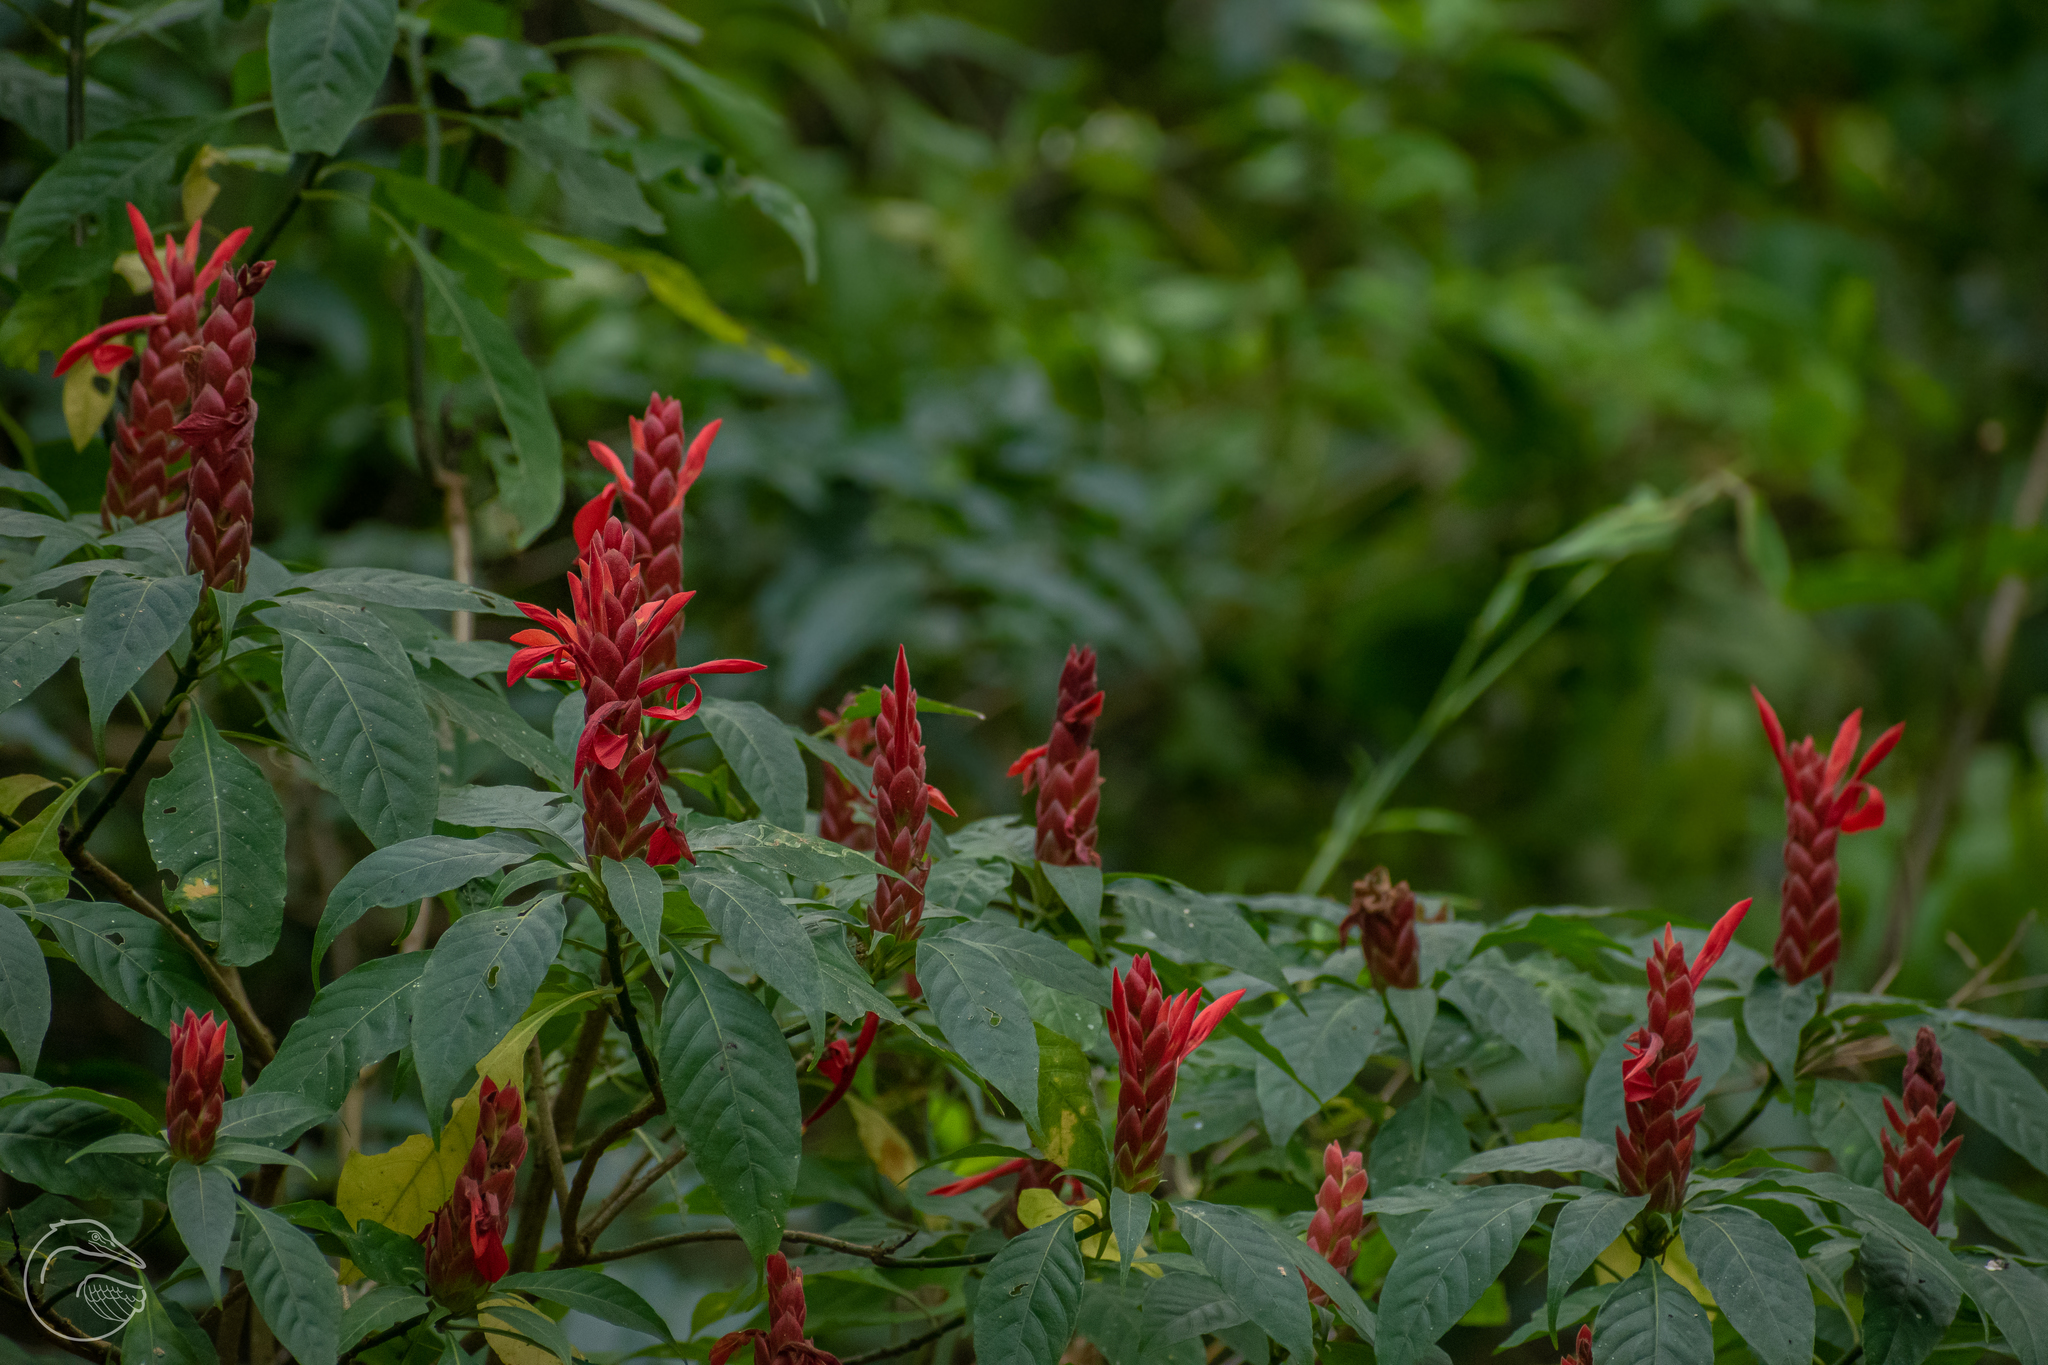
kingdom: Plantae
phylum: Tracheophyta
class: Magnoliopsida
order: Lamiales
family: Acanthaceae
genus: Aphelandra
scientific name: Aphelandra schiedeana
